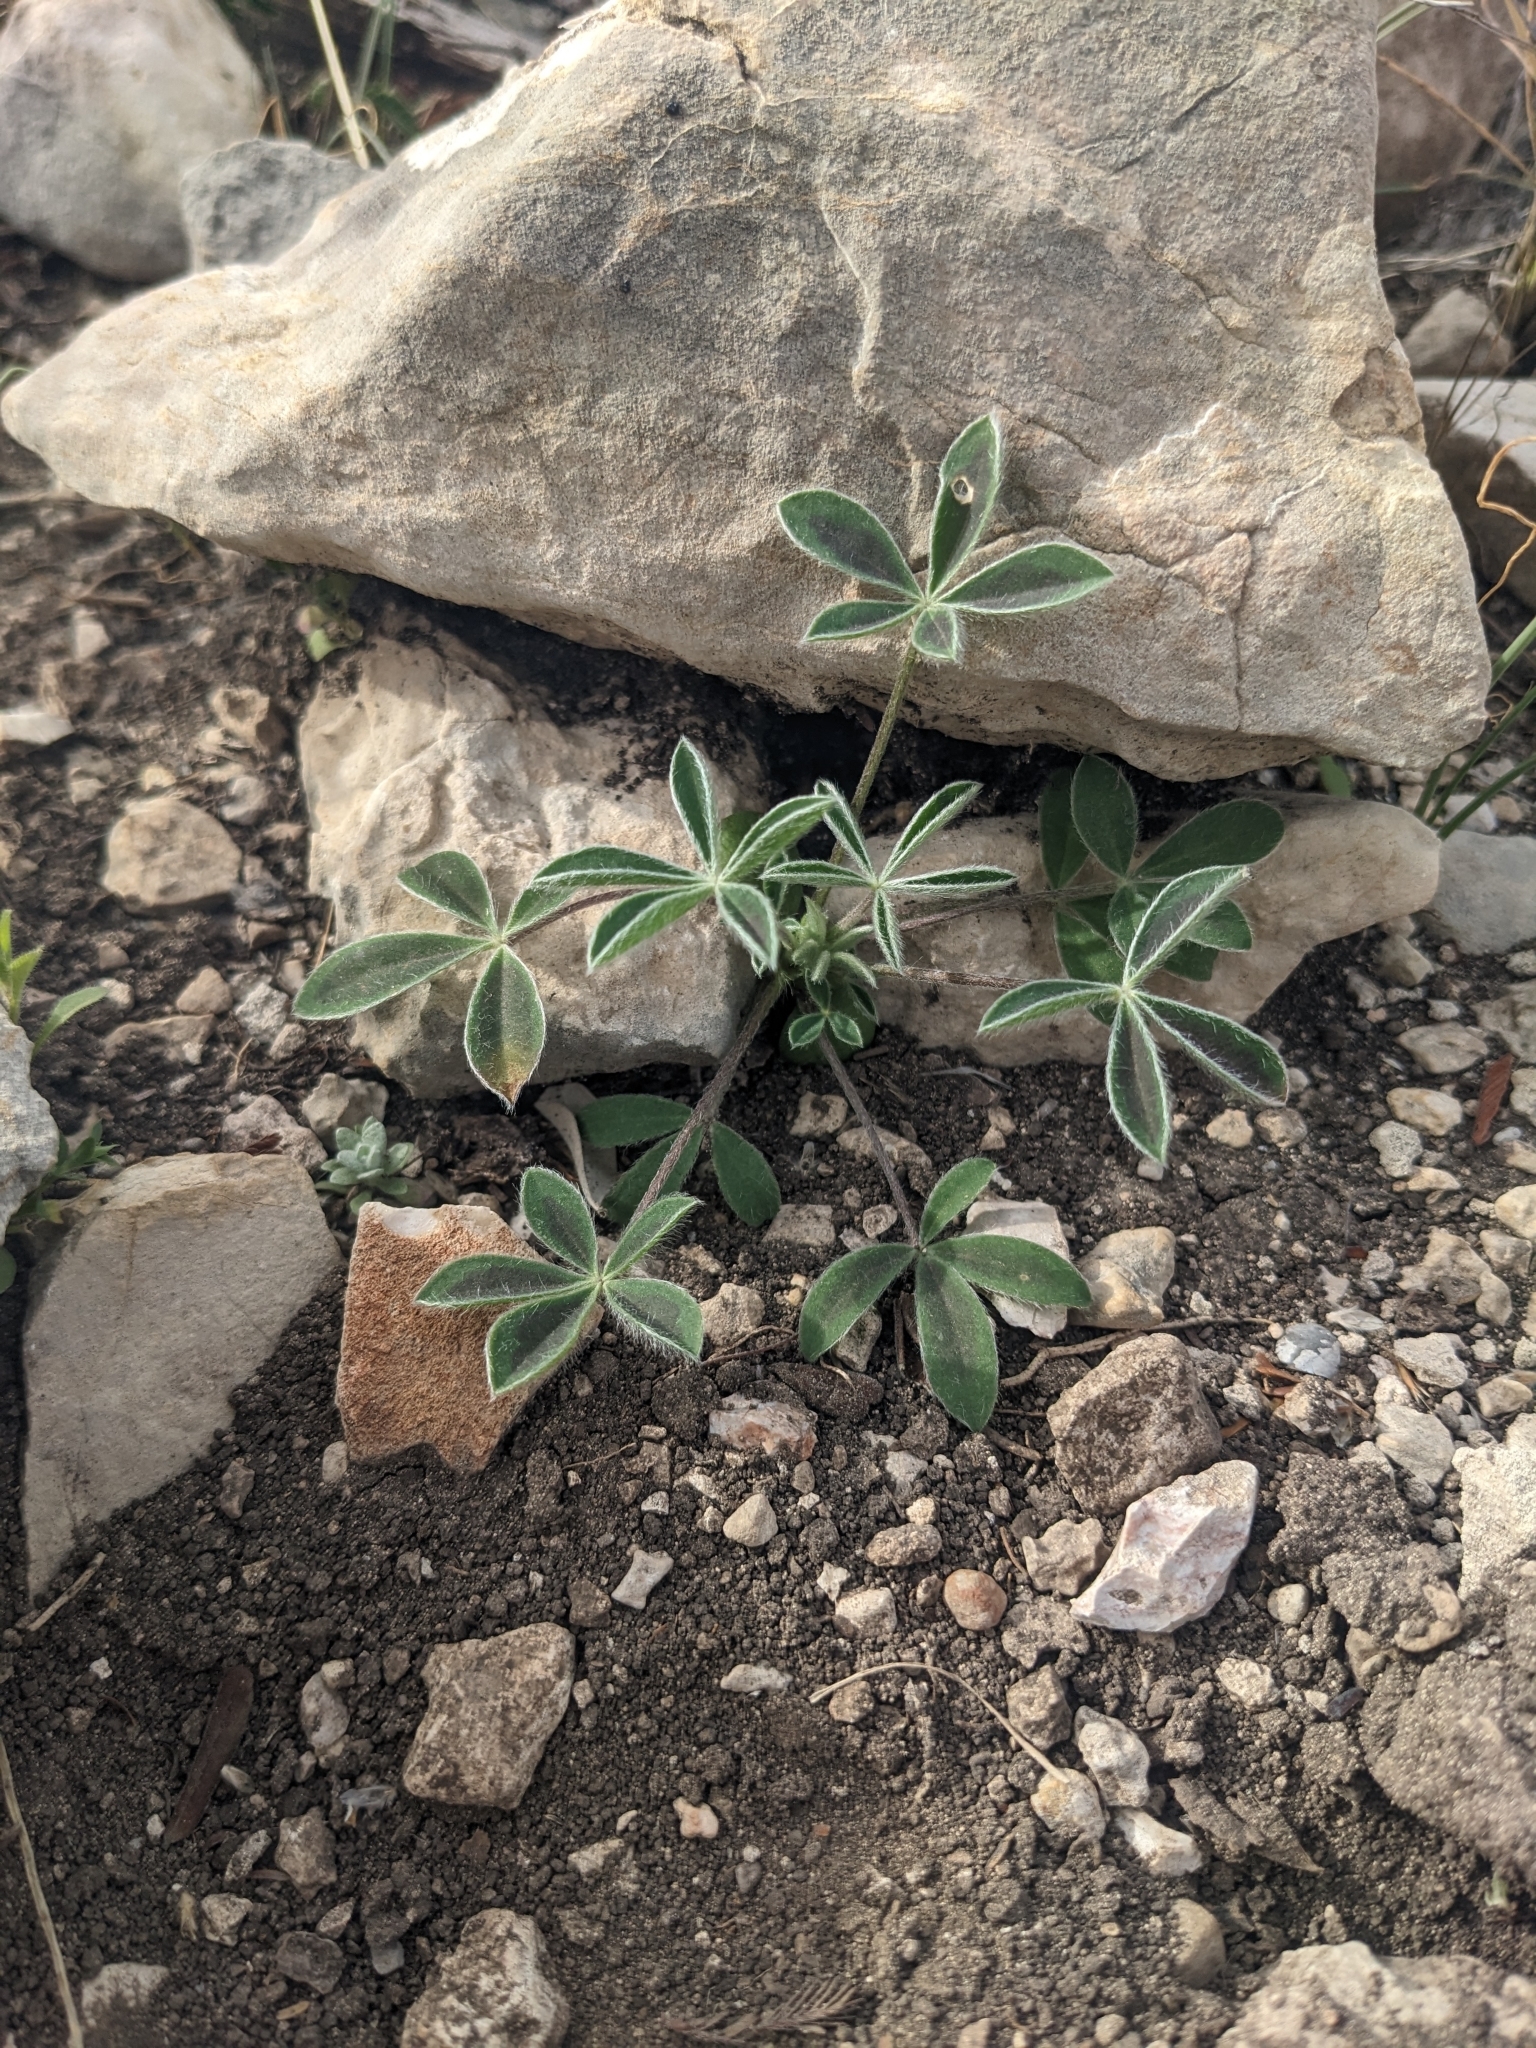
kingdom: Plantae
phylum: Tracheophyta
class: Magnoliopsida
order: Fabales
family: Fabaceae
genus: Lupinus
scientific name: Lupinus texensis
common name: Texas bluebonnet
